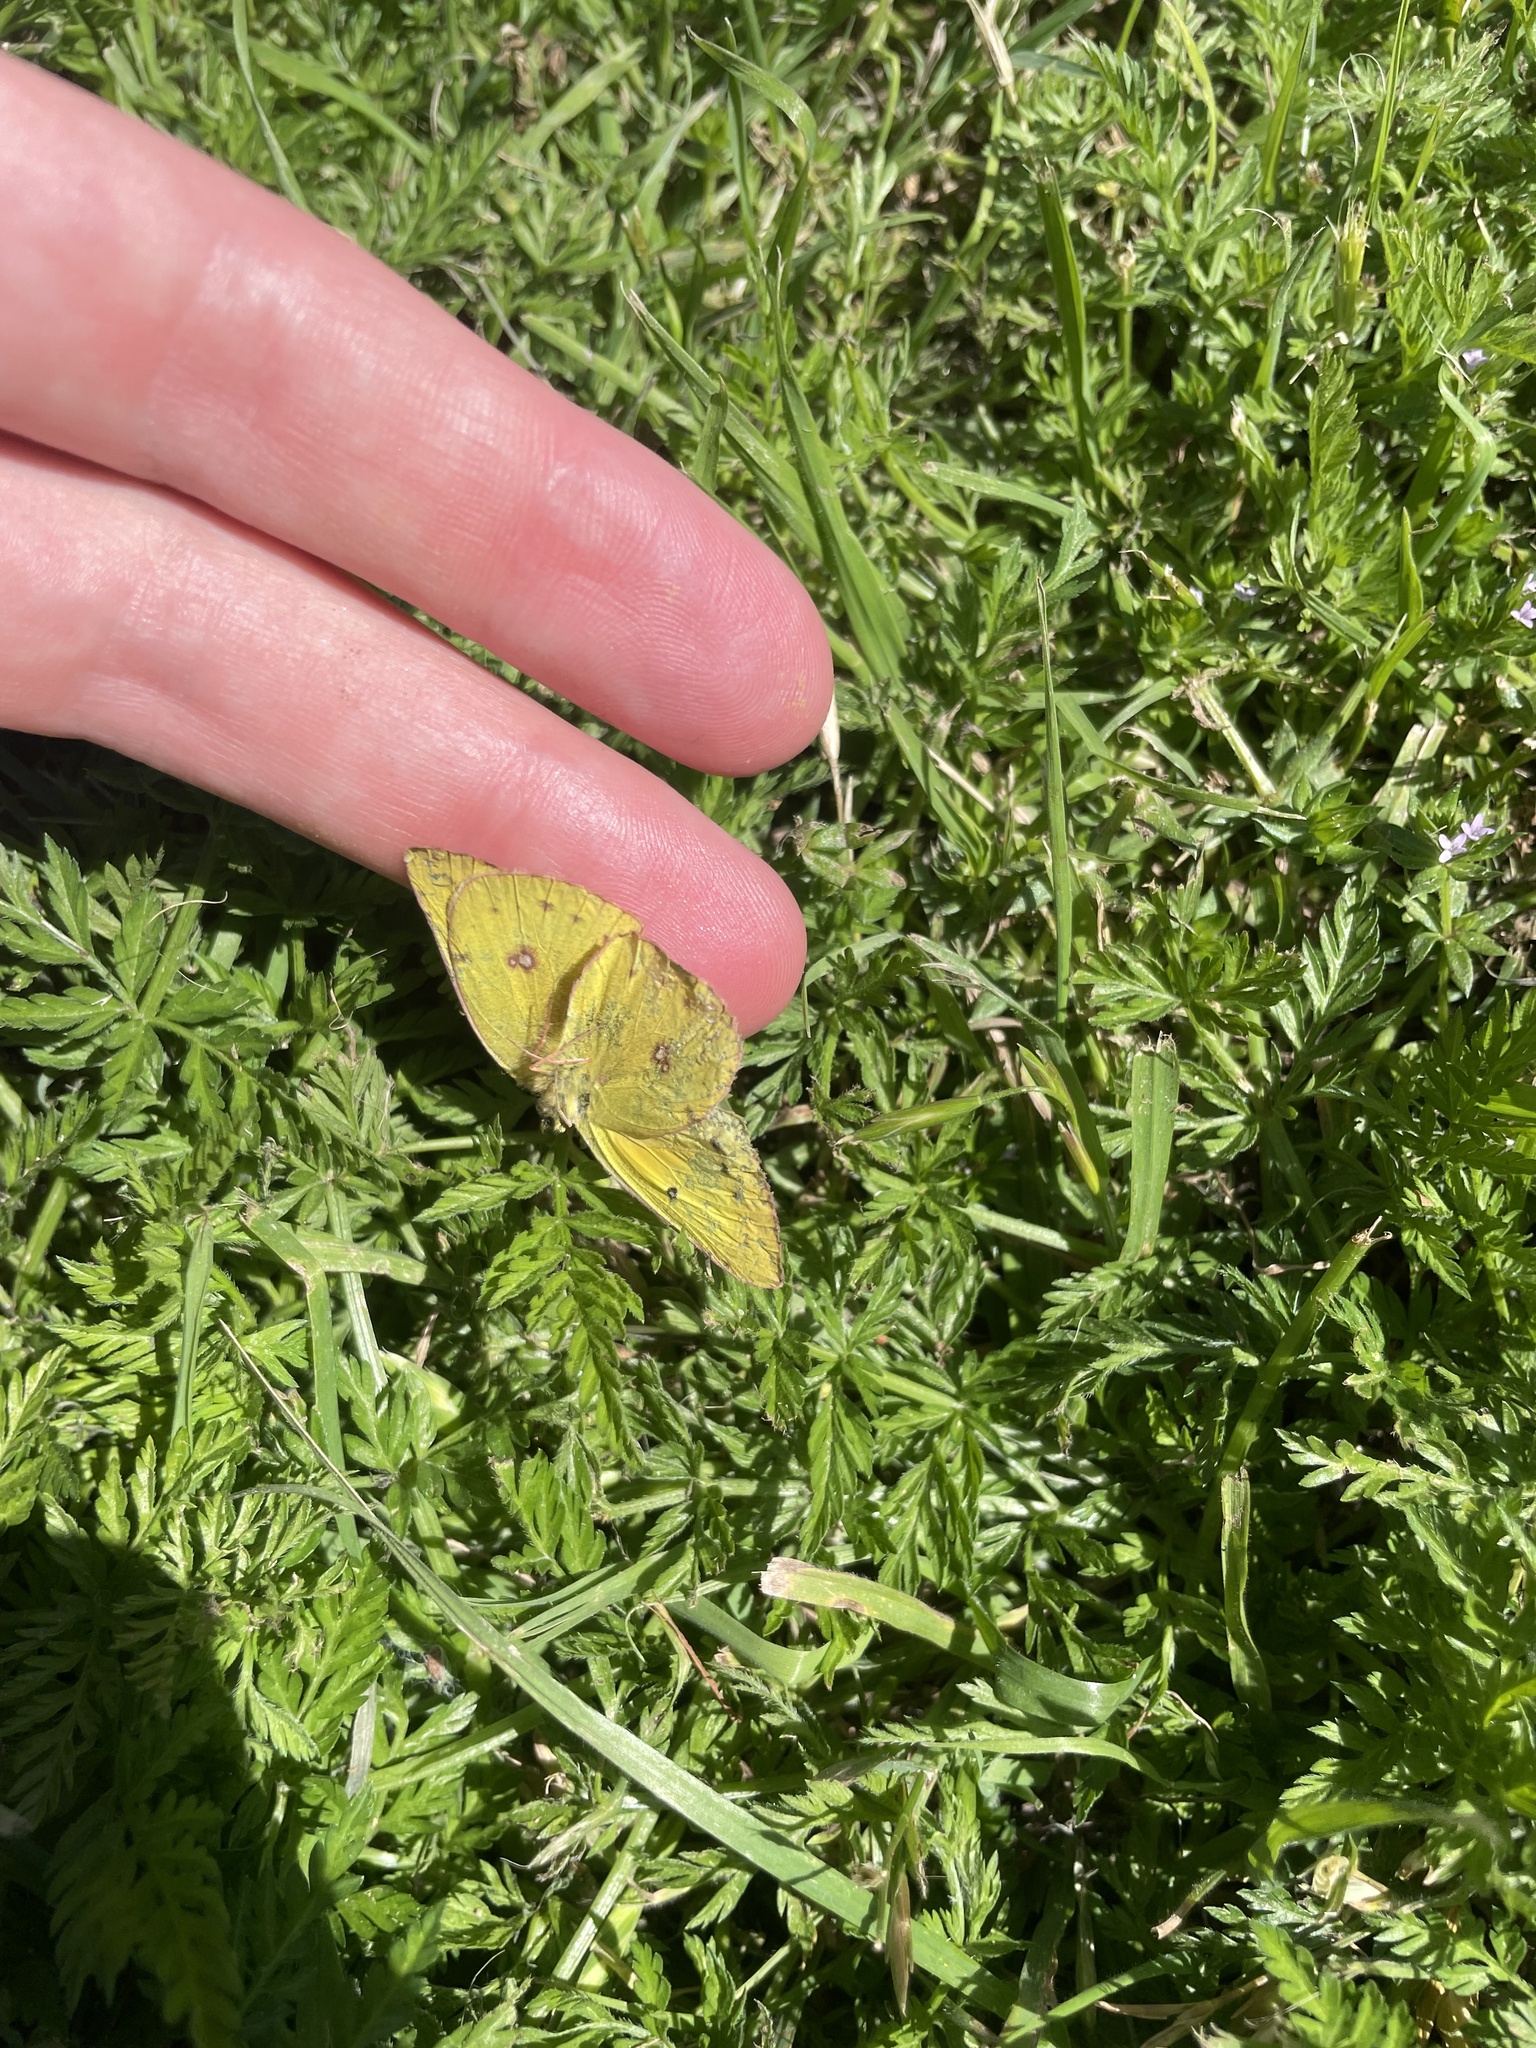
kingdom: Animalia
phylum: Arthropoda
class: Insecta
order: Lepidoptera
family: Pieridae
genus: Colias
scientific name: Colias eurytheme
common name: Alfalfa butterfly
